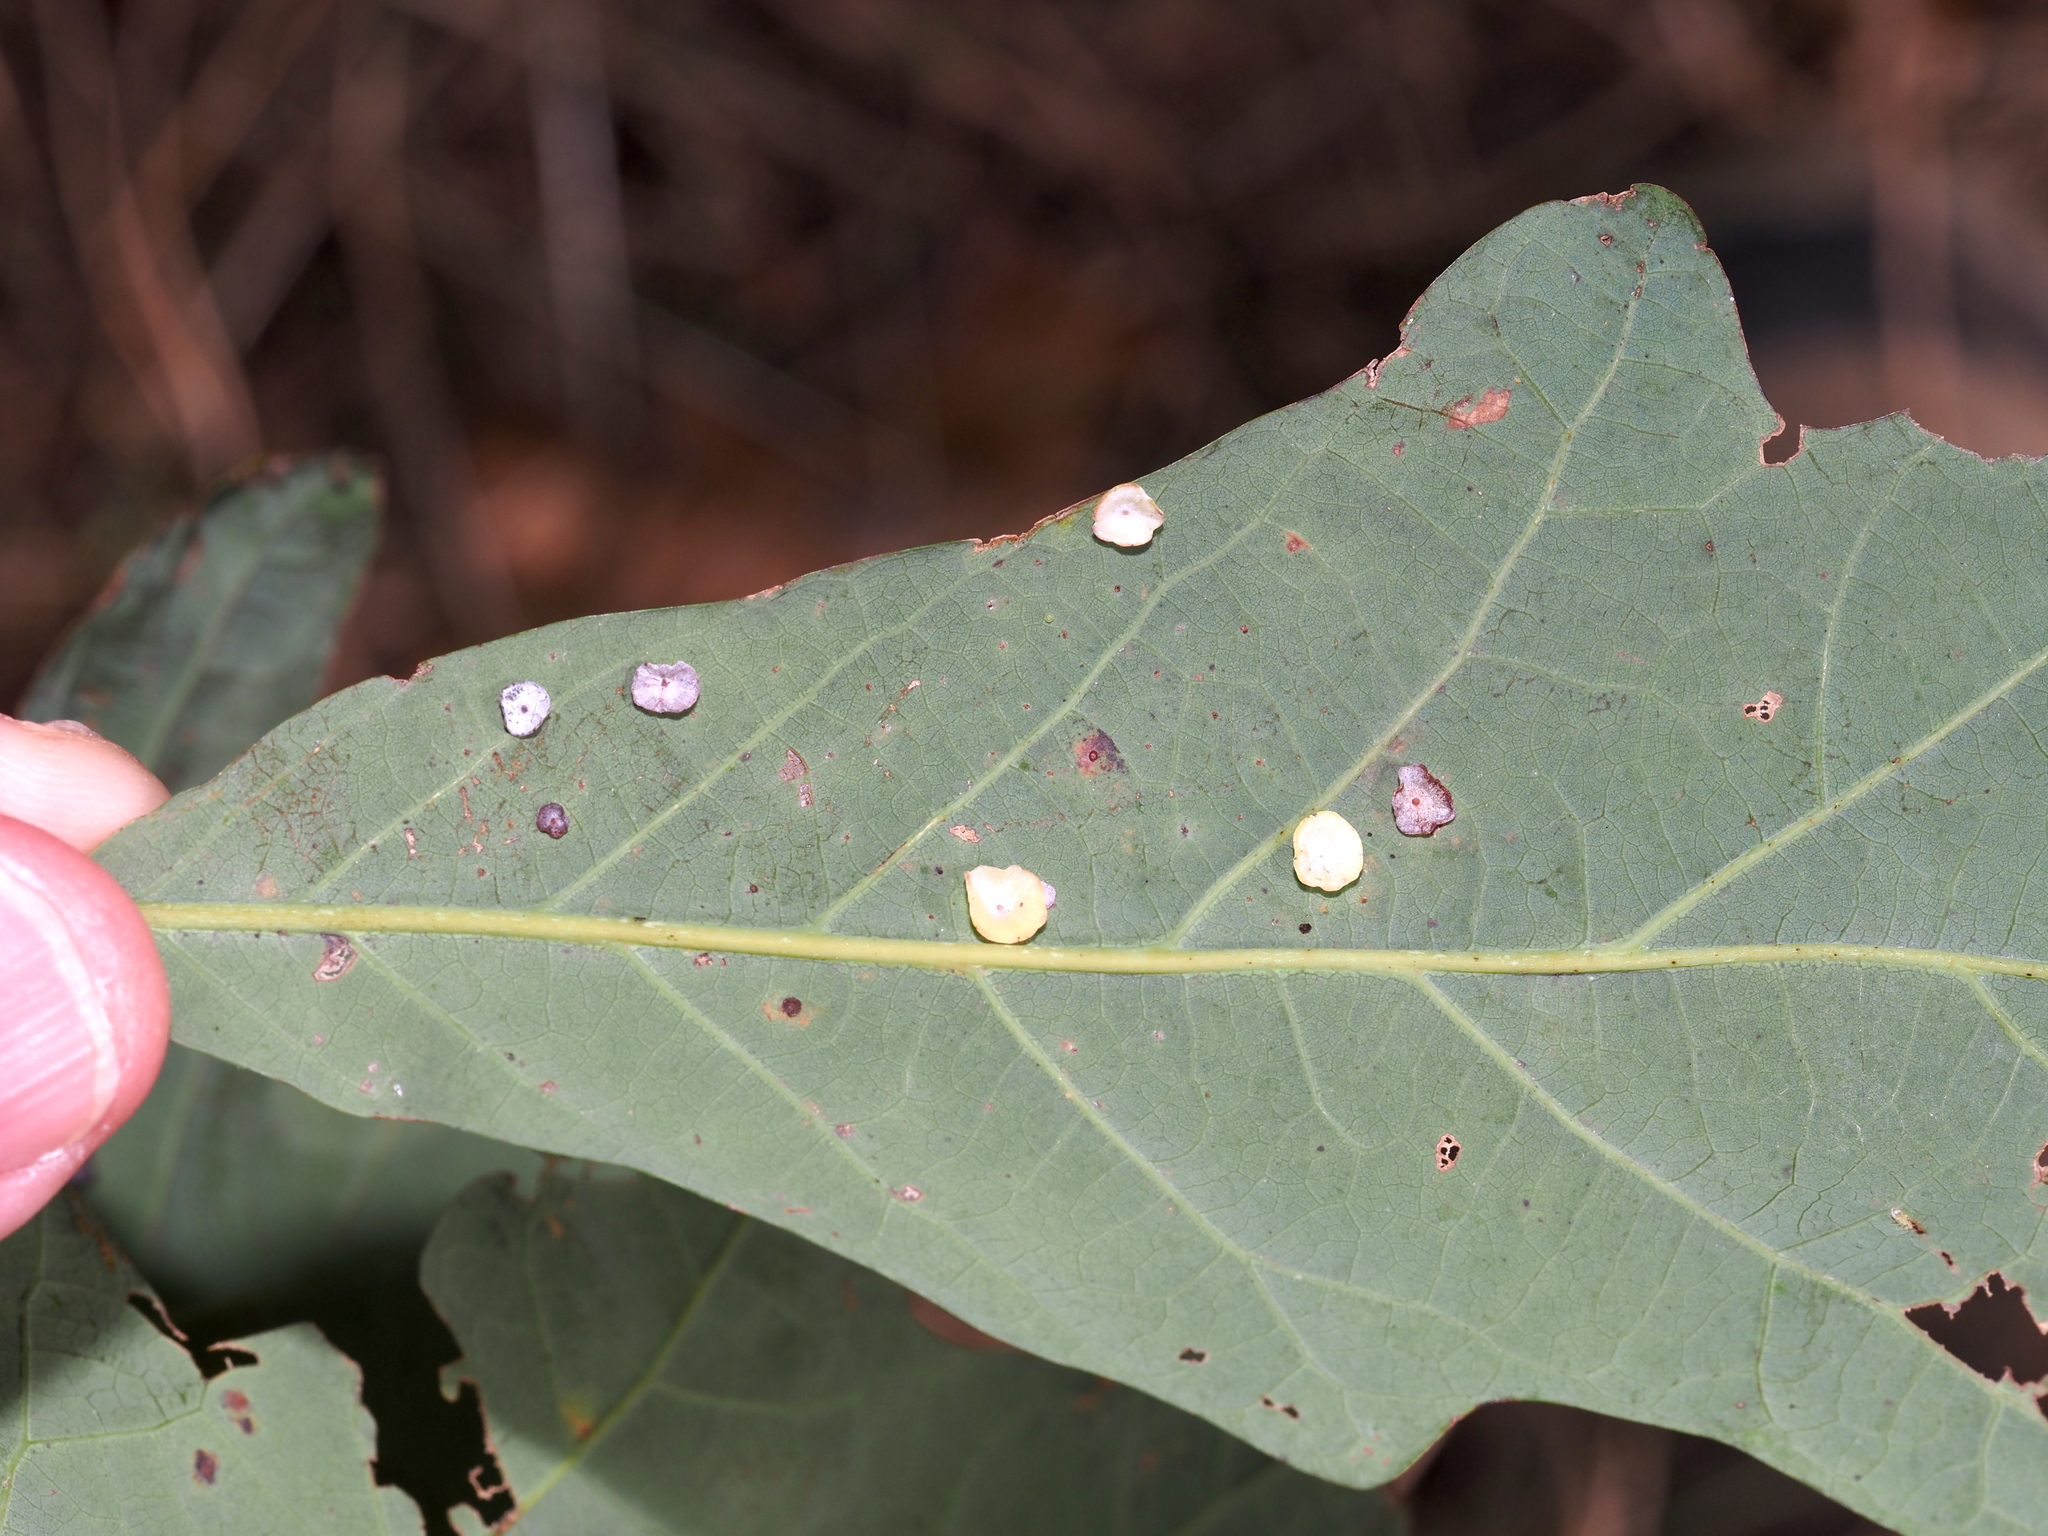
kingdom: Animalia
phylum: Arthropoda
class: Insecta
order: Hymenoptera
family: Cynipidae
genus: Phylloteras
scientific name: Phylloteras poculum
